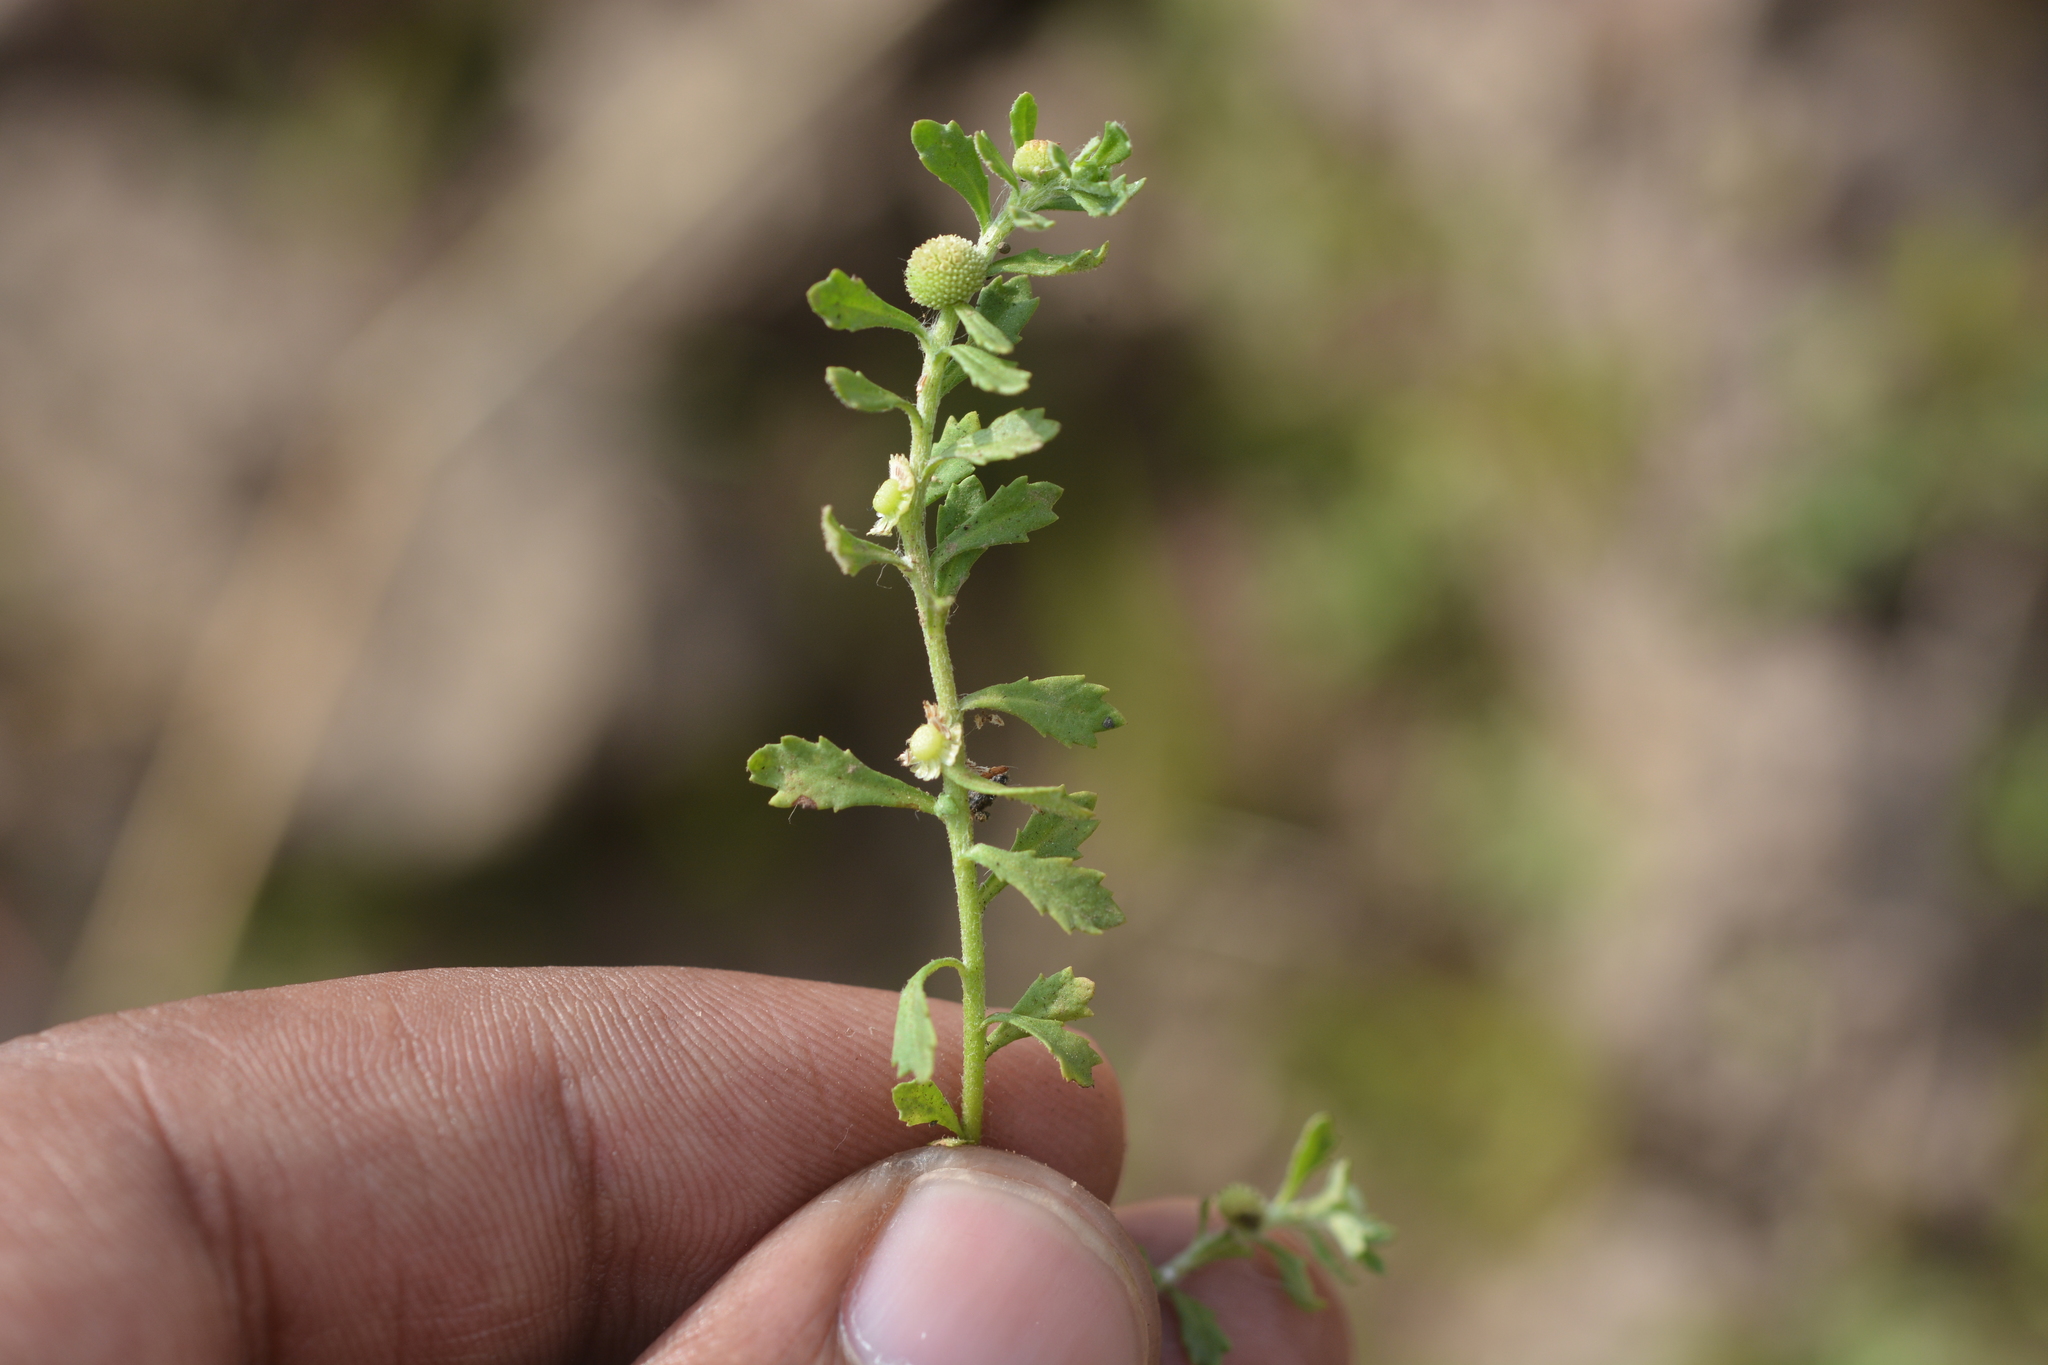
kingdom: Plantae
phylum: Tracheophyta
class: Magnoliopsida
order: Asterales
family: Asteraceae
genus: Centipeda
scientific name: Centipeda minima
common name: Spreading sneezeweed
